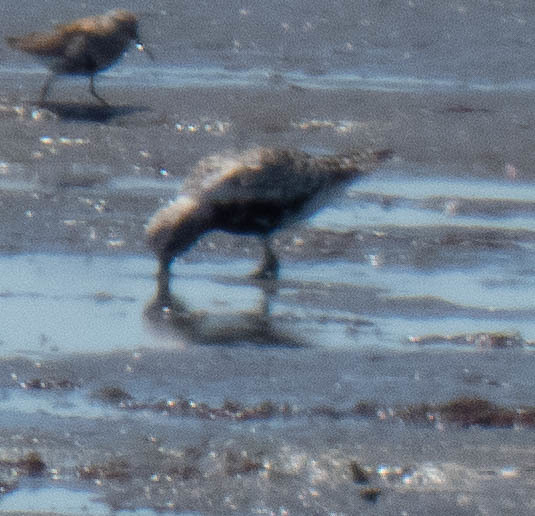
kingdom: Animalia
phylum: Chordata
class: Aves
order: Charadriiformes
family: Charadriidae
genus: Pluvialis
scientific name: Pluvialis squatarola
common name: Grey plover
